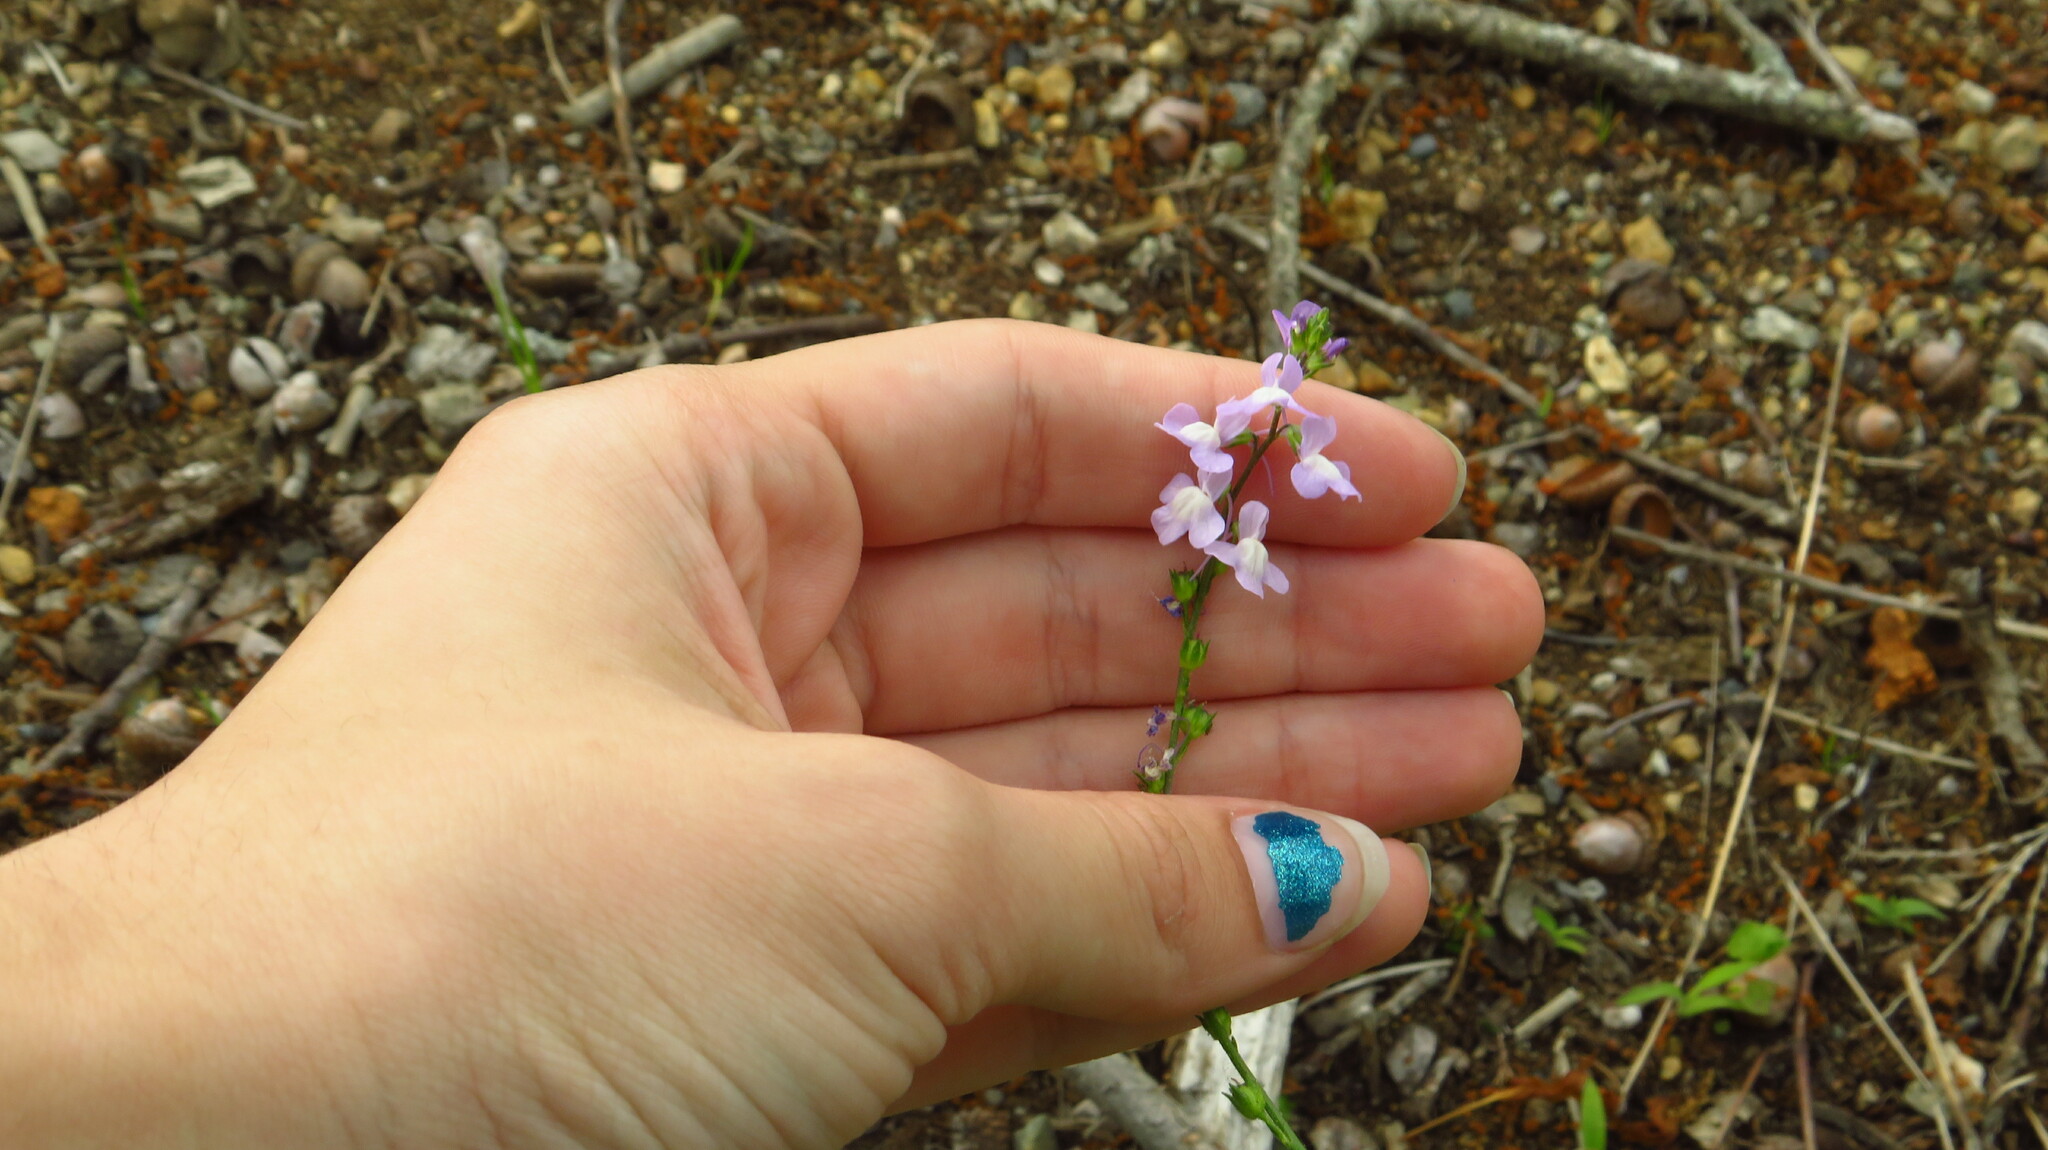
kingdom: Plantae
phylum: Tracheophyta
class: Magnoliopsida
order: Lamiales
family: Plantaginaceae
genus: Nuttallanthus
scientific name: Nuttallanthus canadensis
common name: Blue toadflax
